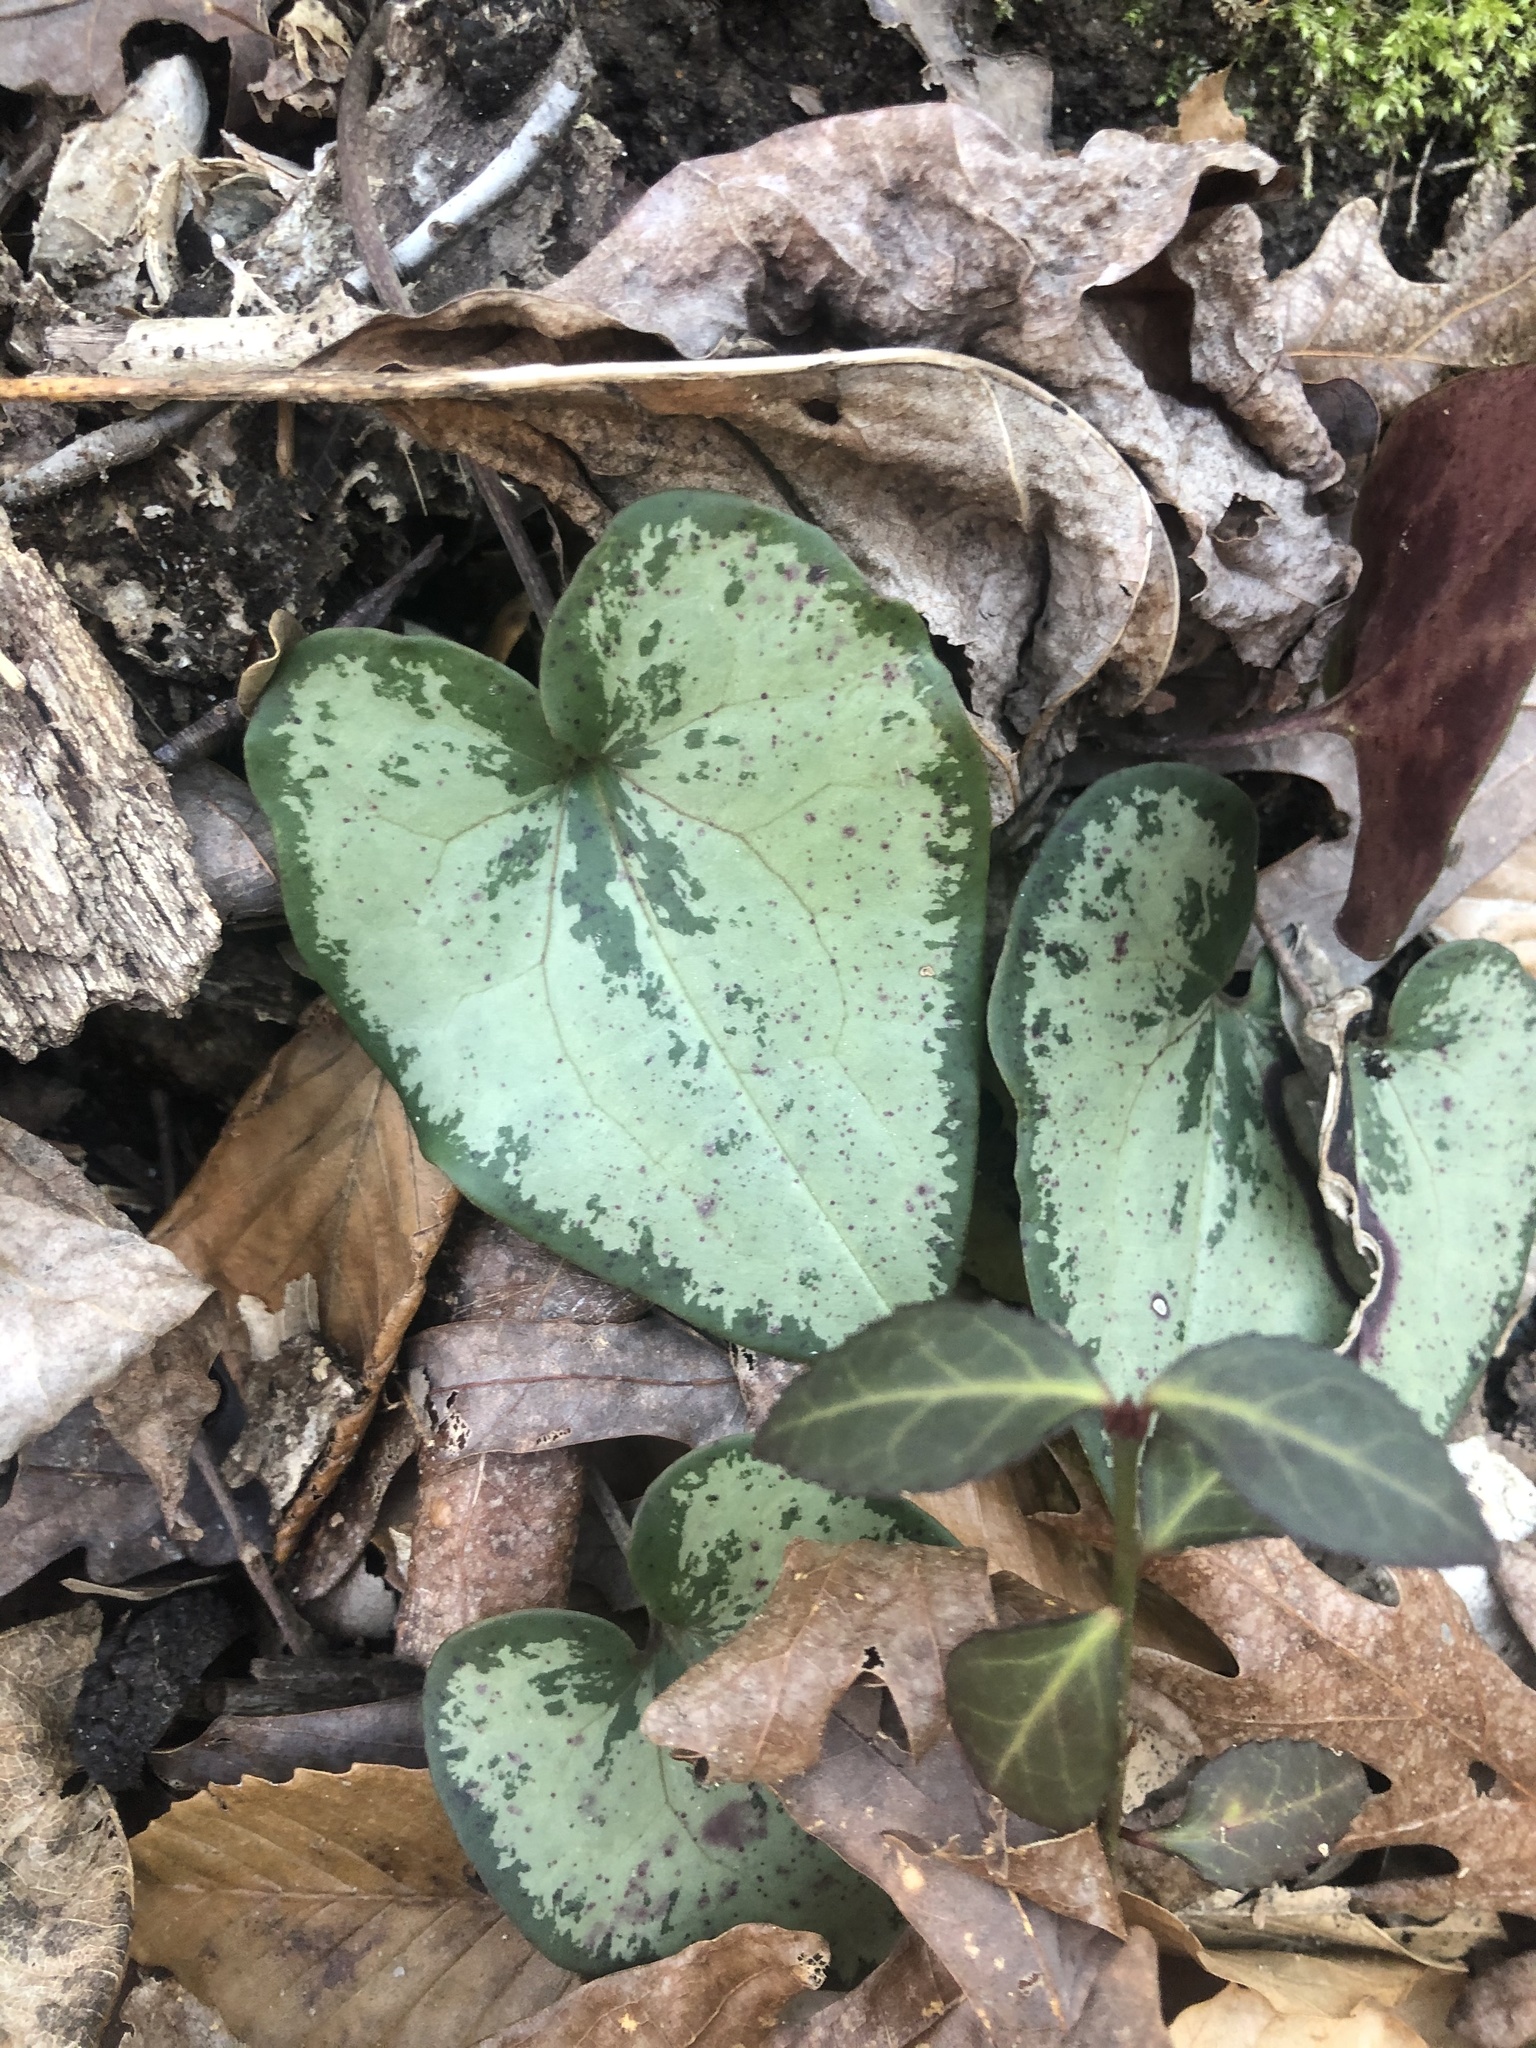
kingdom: Plantae
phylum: Tracheophyta
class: Magnoliopsida
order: Piperales
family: Aristolochiaceae
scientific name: Aristolochiaceae
